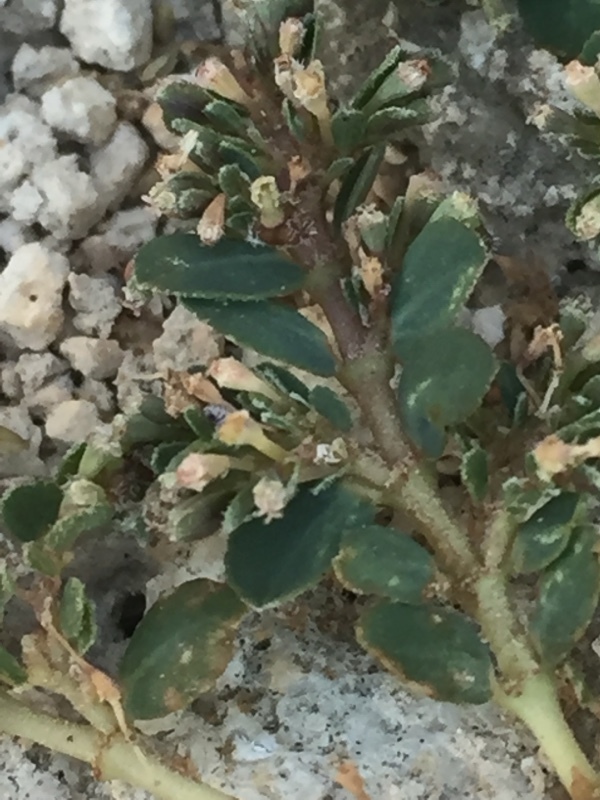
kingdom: Plantae
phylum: Tracheophyta
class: Magnoliopsida
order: Malpighiales
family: Euphorbiaceae
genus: Euphorbia
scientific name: Euphorbia prostrata
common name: Prostrate sandmat
